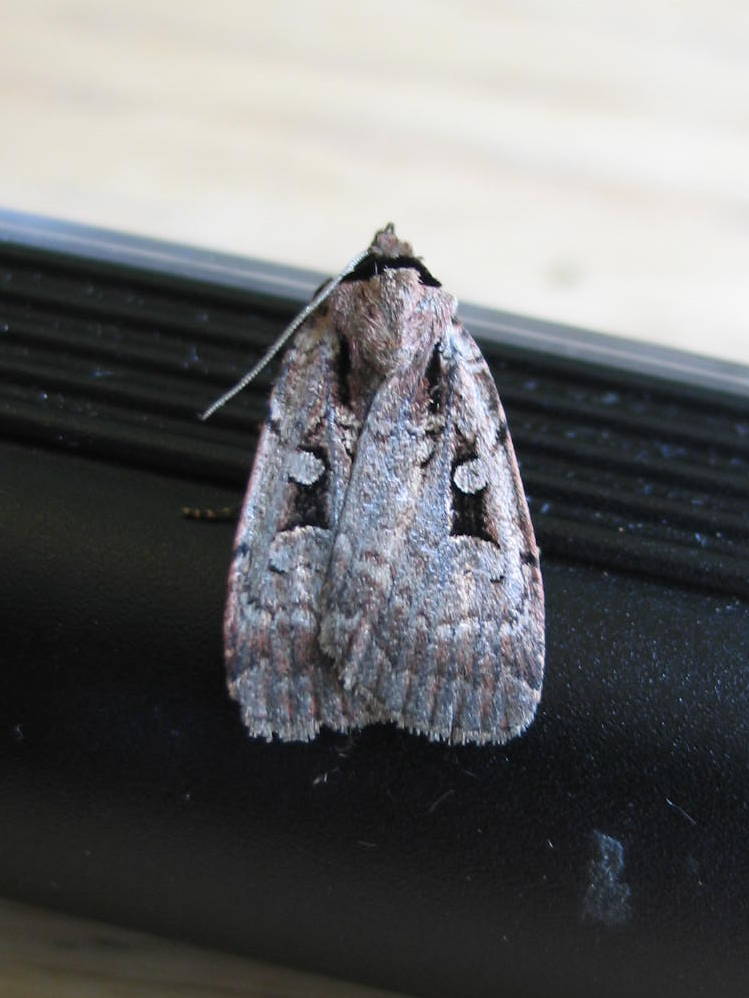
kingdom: Animalia
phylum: Arthropoda
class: Insecta
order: Lepidoptera
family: Noctuidae
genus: Eueretagrotis
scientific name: Eueretagrotis perattentus
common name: Two-spot dart moth
